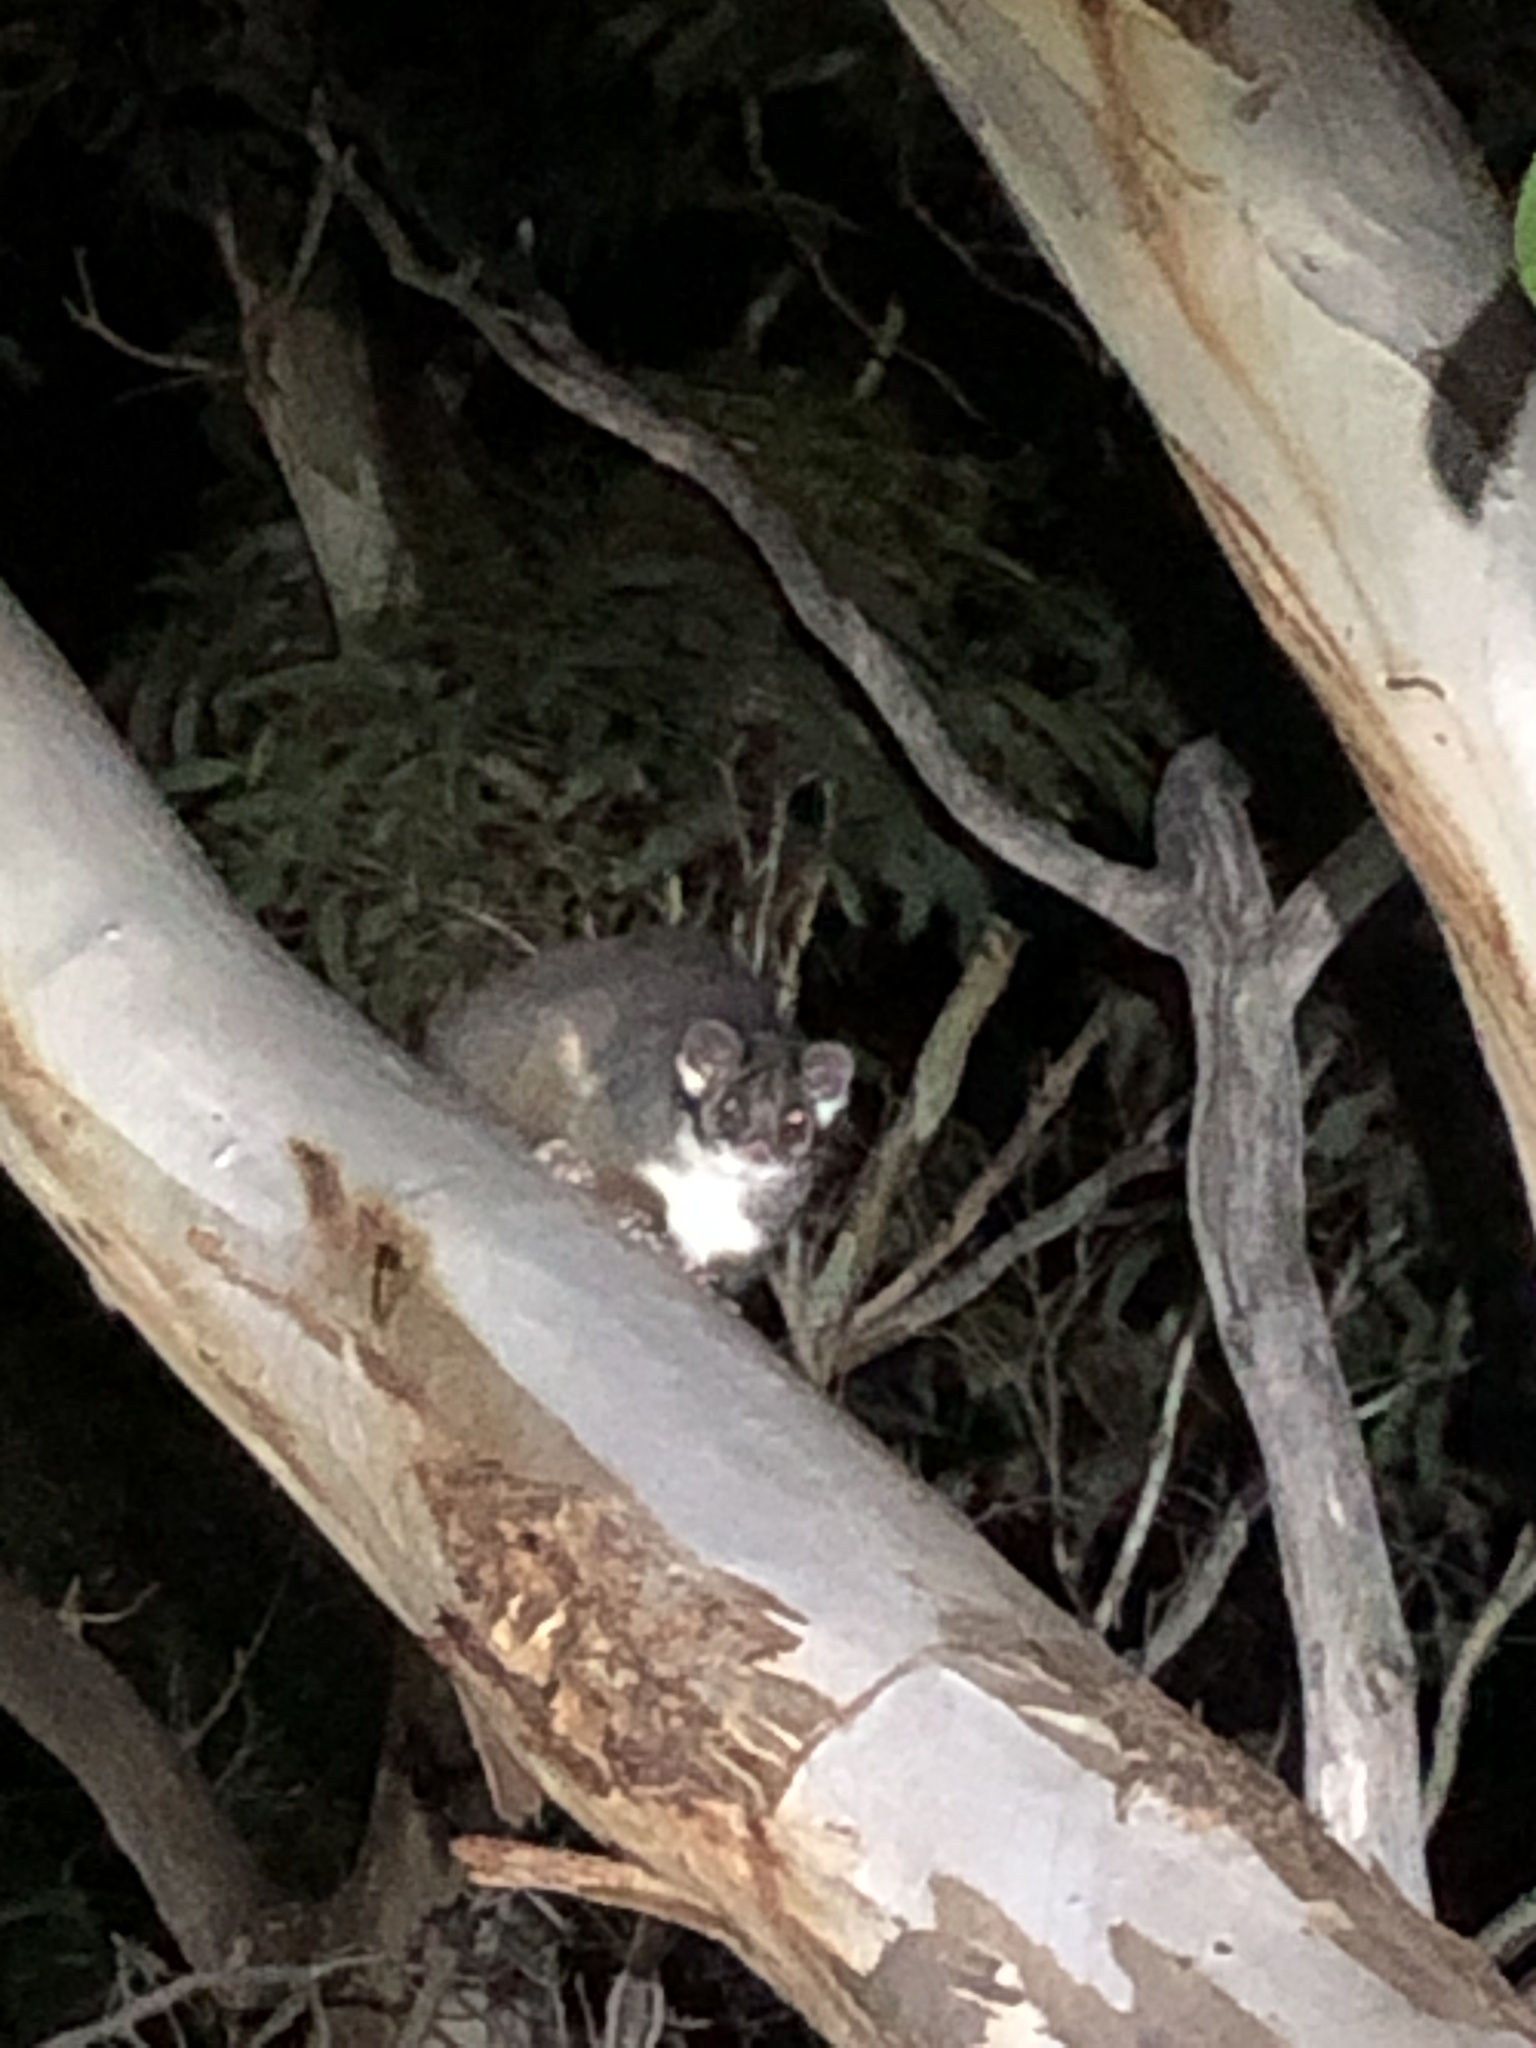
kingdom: Animalia
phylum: Chordata
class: Mammalia
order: Diprotodontia
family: Pseudocheiridae
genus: Pseudocheirus
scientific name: Pseudocheirus peregrinus
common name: Common ringtail possum
